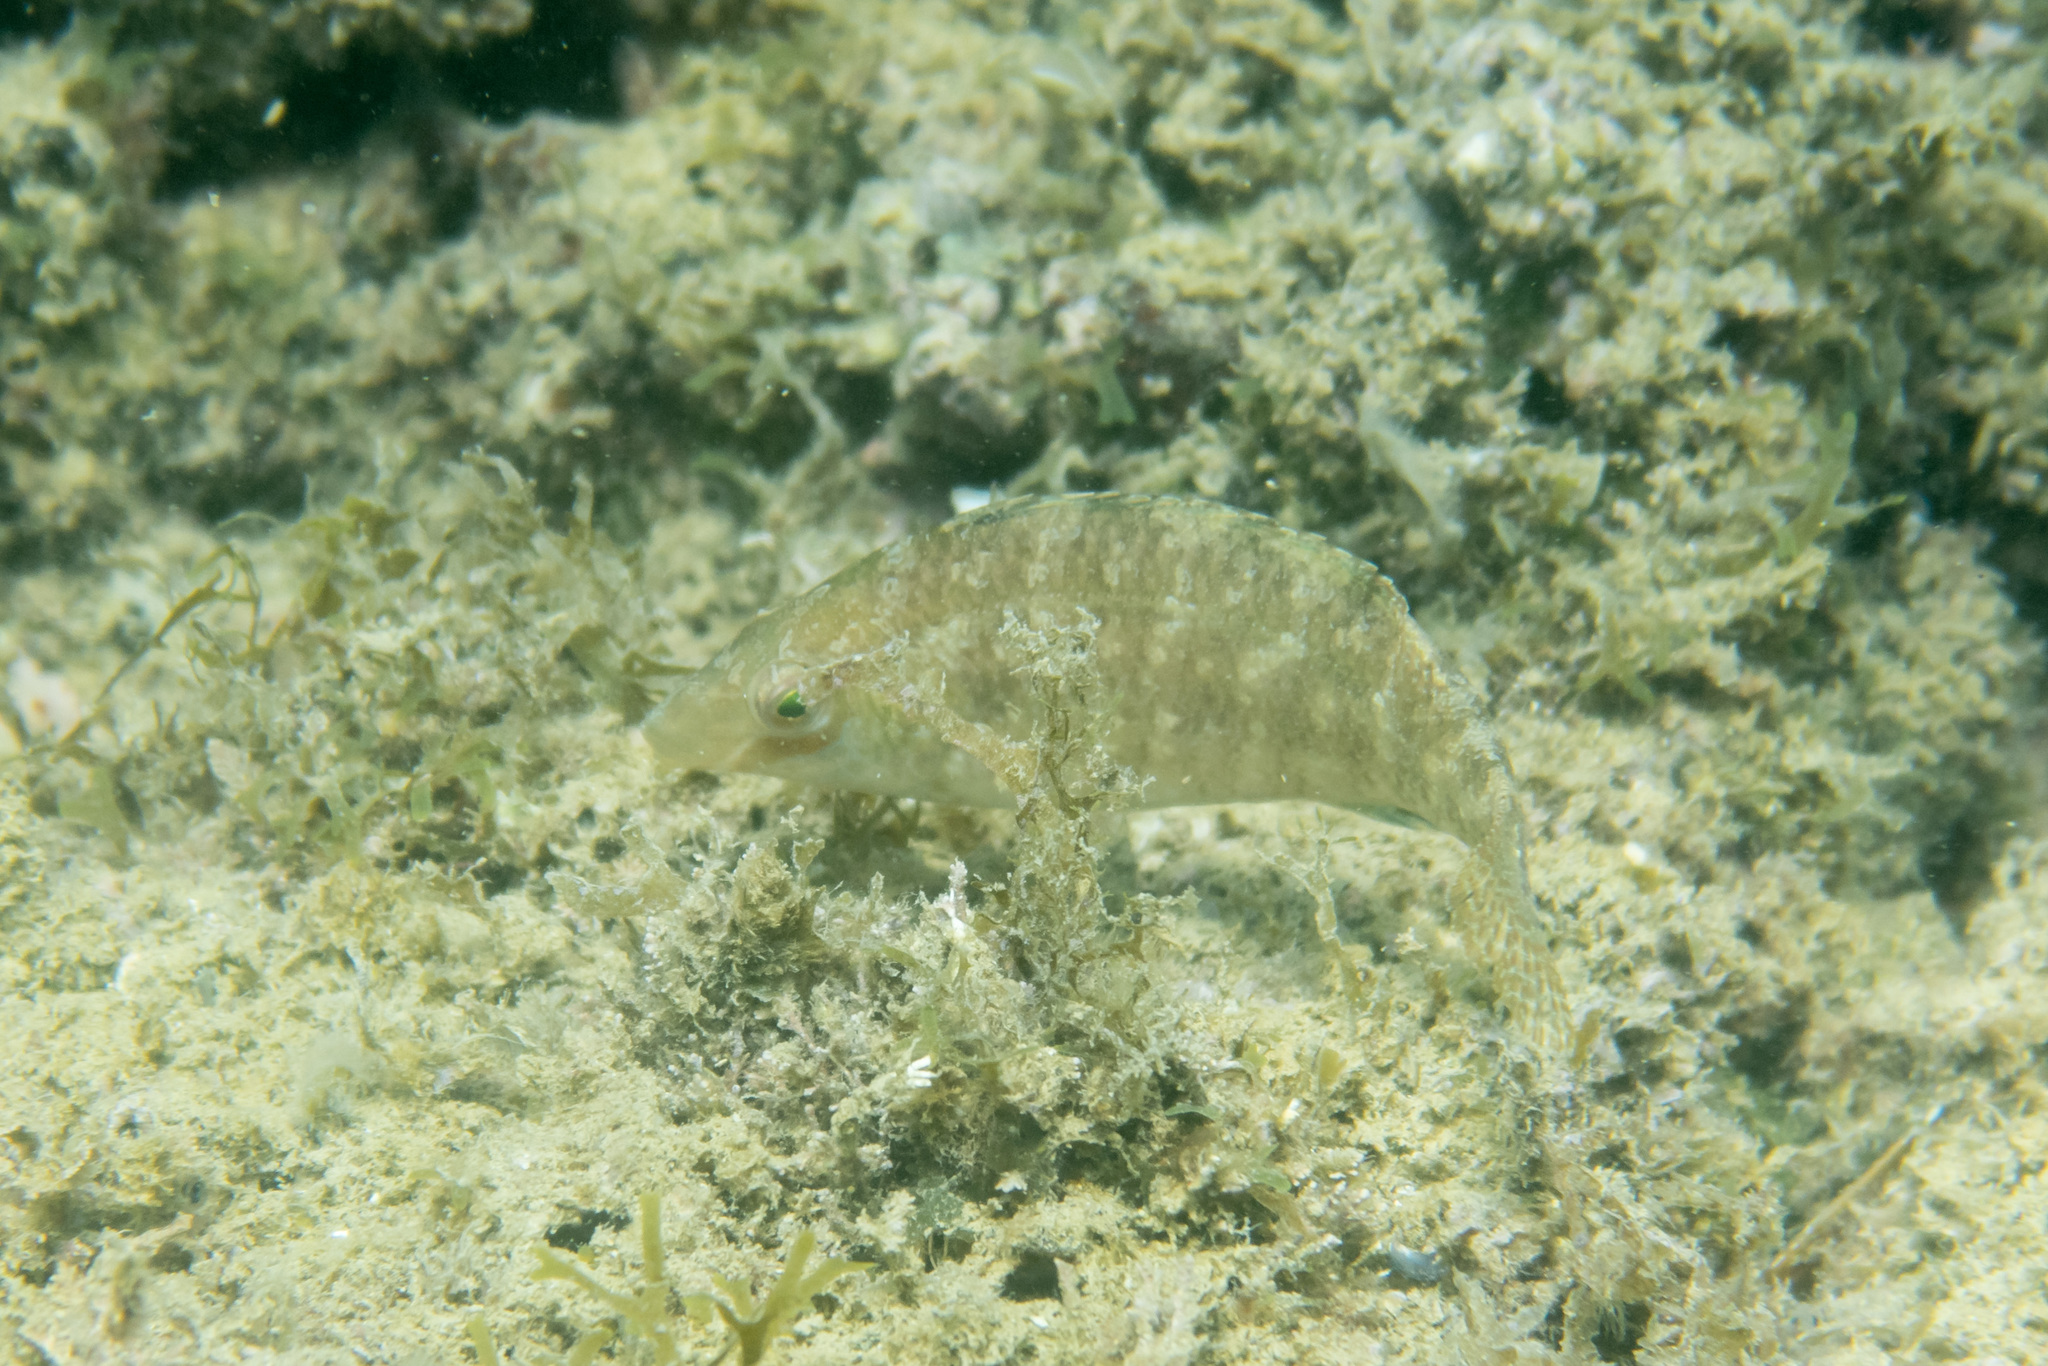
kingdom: Animalia
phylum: Chordata
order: Perciformes
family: Labridae
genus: Symphodus
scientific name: Symphodus cinereus
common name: Grey wrasse
